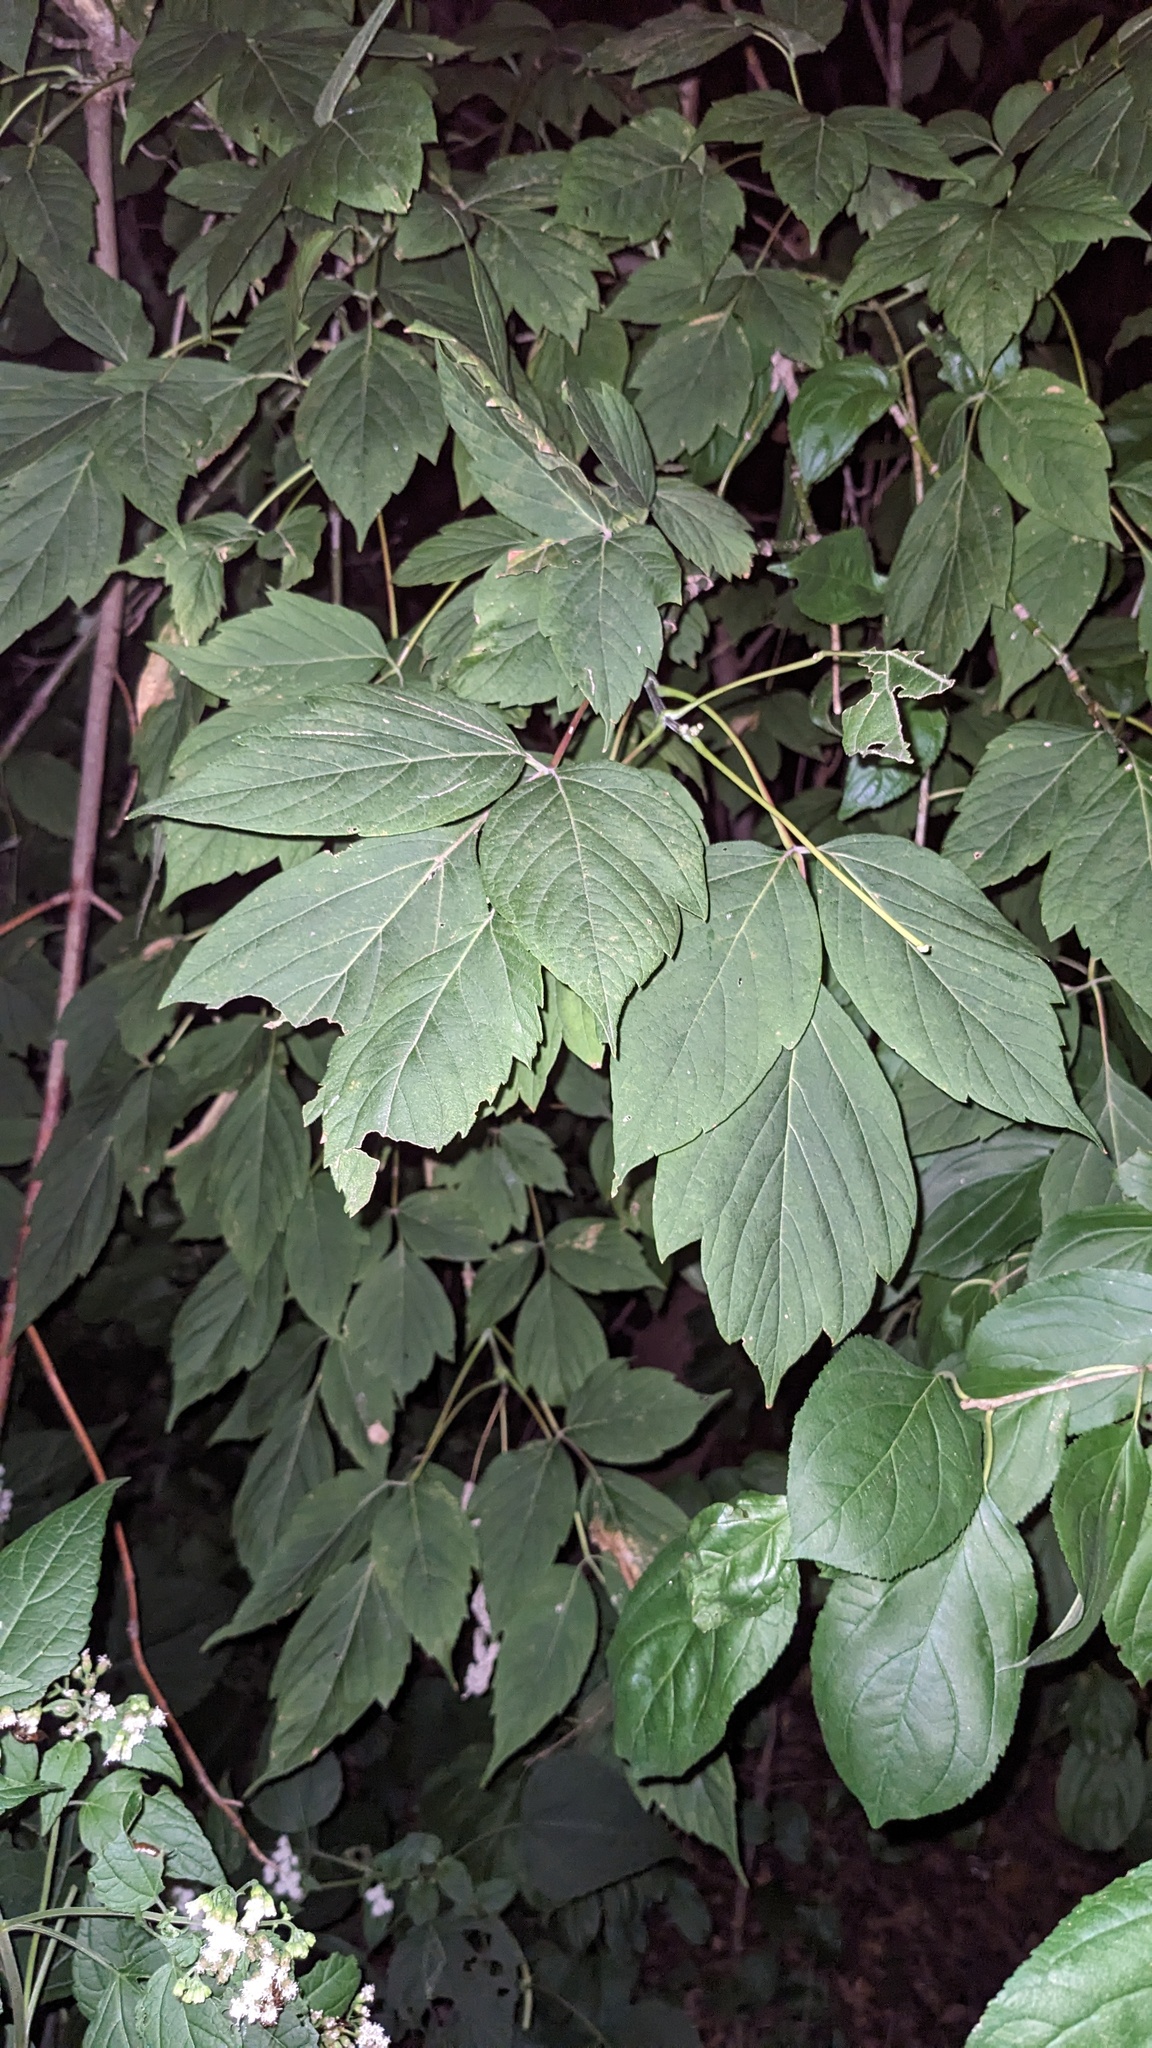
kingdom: Plantae
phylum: Tracheophyta
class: Magnoliopsida
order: Sapindales
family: Sapindaceae
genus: Acer
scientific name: Acer negundo
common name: Ashleaf maple
